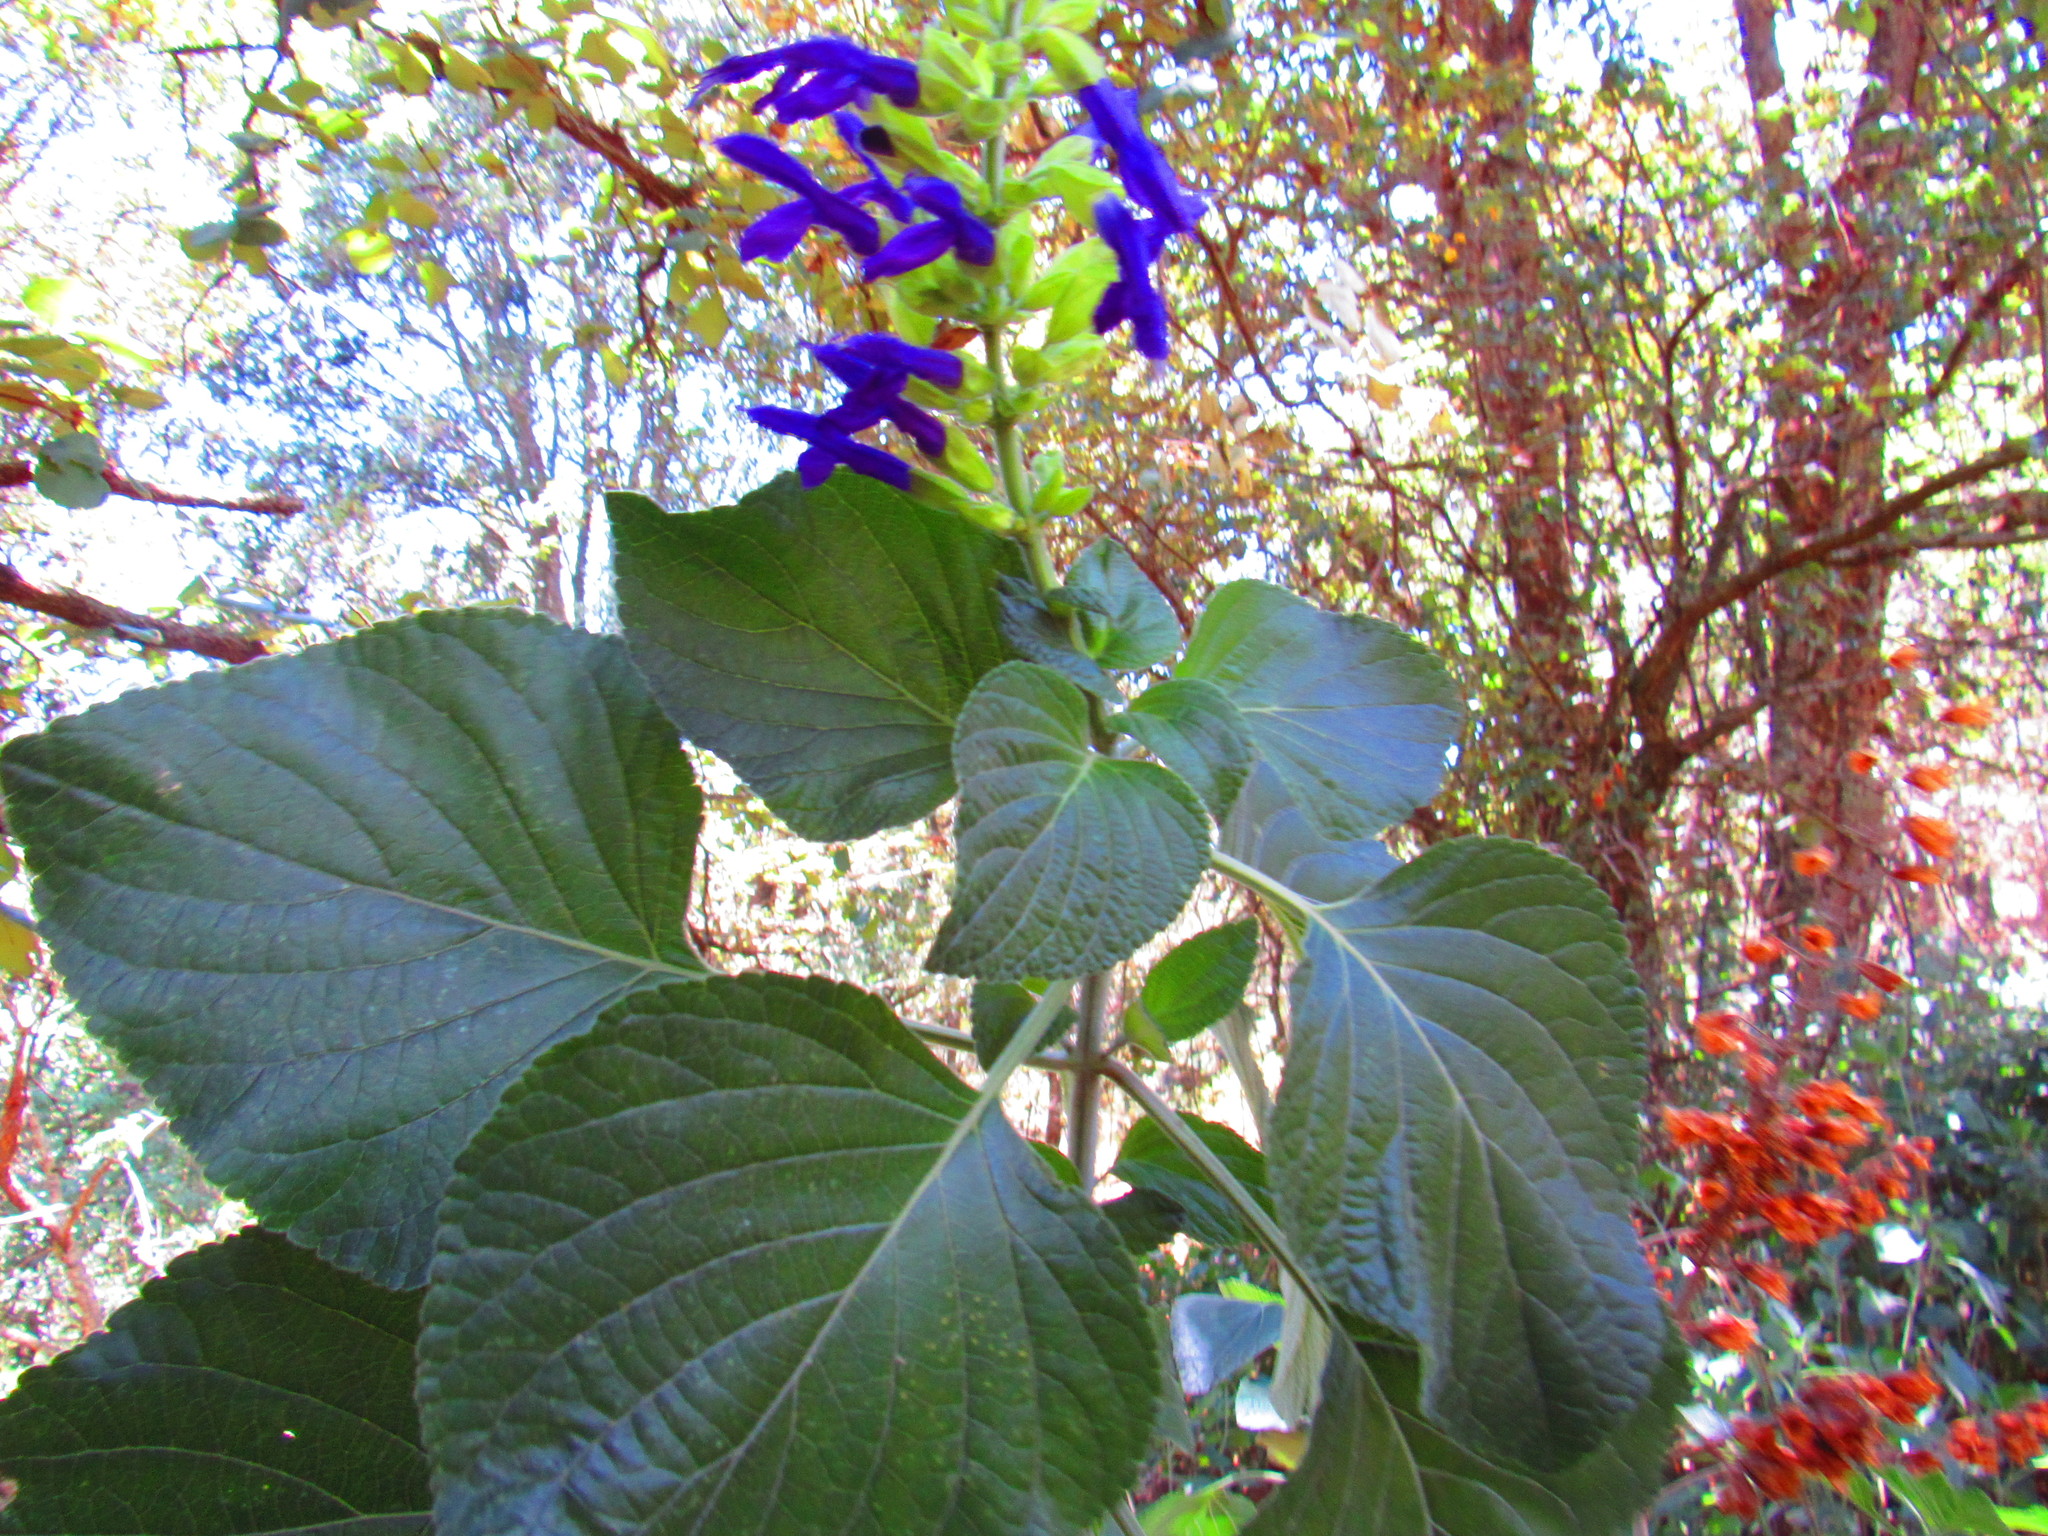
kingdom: Plantae
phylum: Tracheophyta
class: Magnoliopsida
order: Lamiales
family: Lamiaceae
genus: Salvia
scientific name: Salvia mexicana
